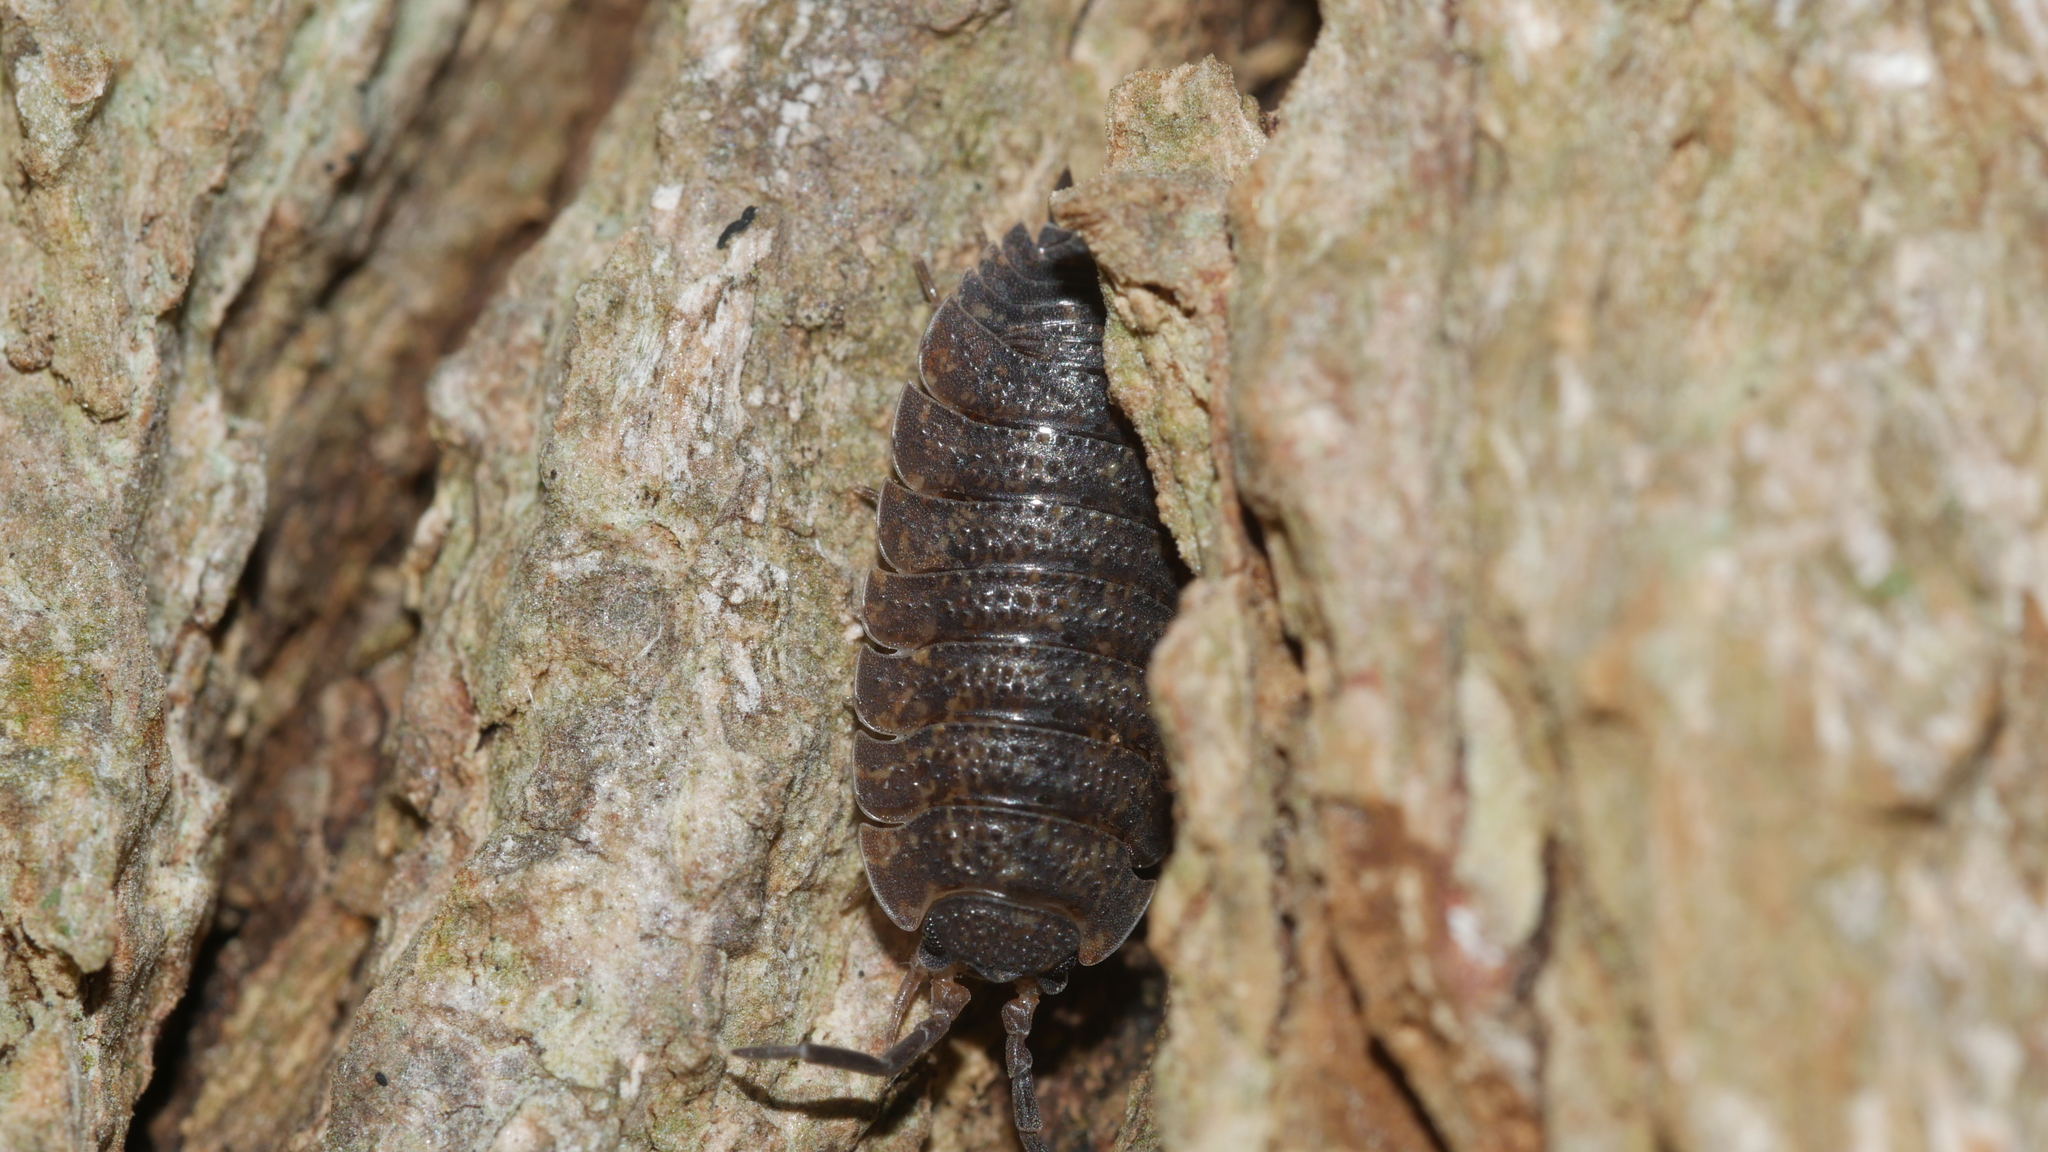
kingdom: Animalia
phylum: Arthropoda
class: Malacostraca
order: Isopoda
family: Porcellionidae
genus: Porcellio
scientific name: Porcellio scaber
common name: Common rough woodlouse
